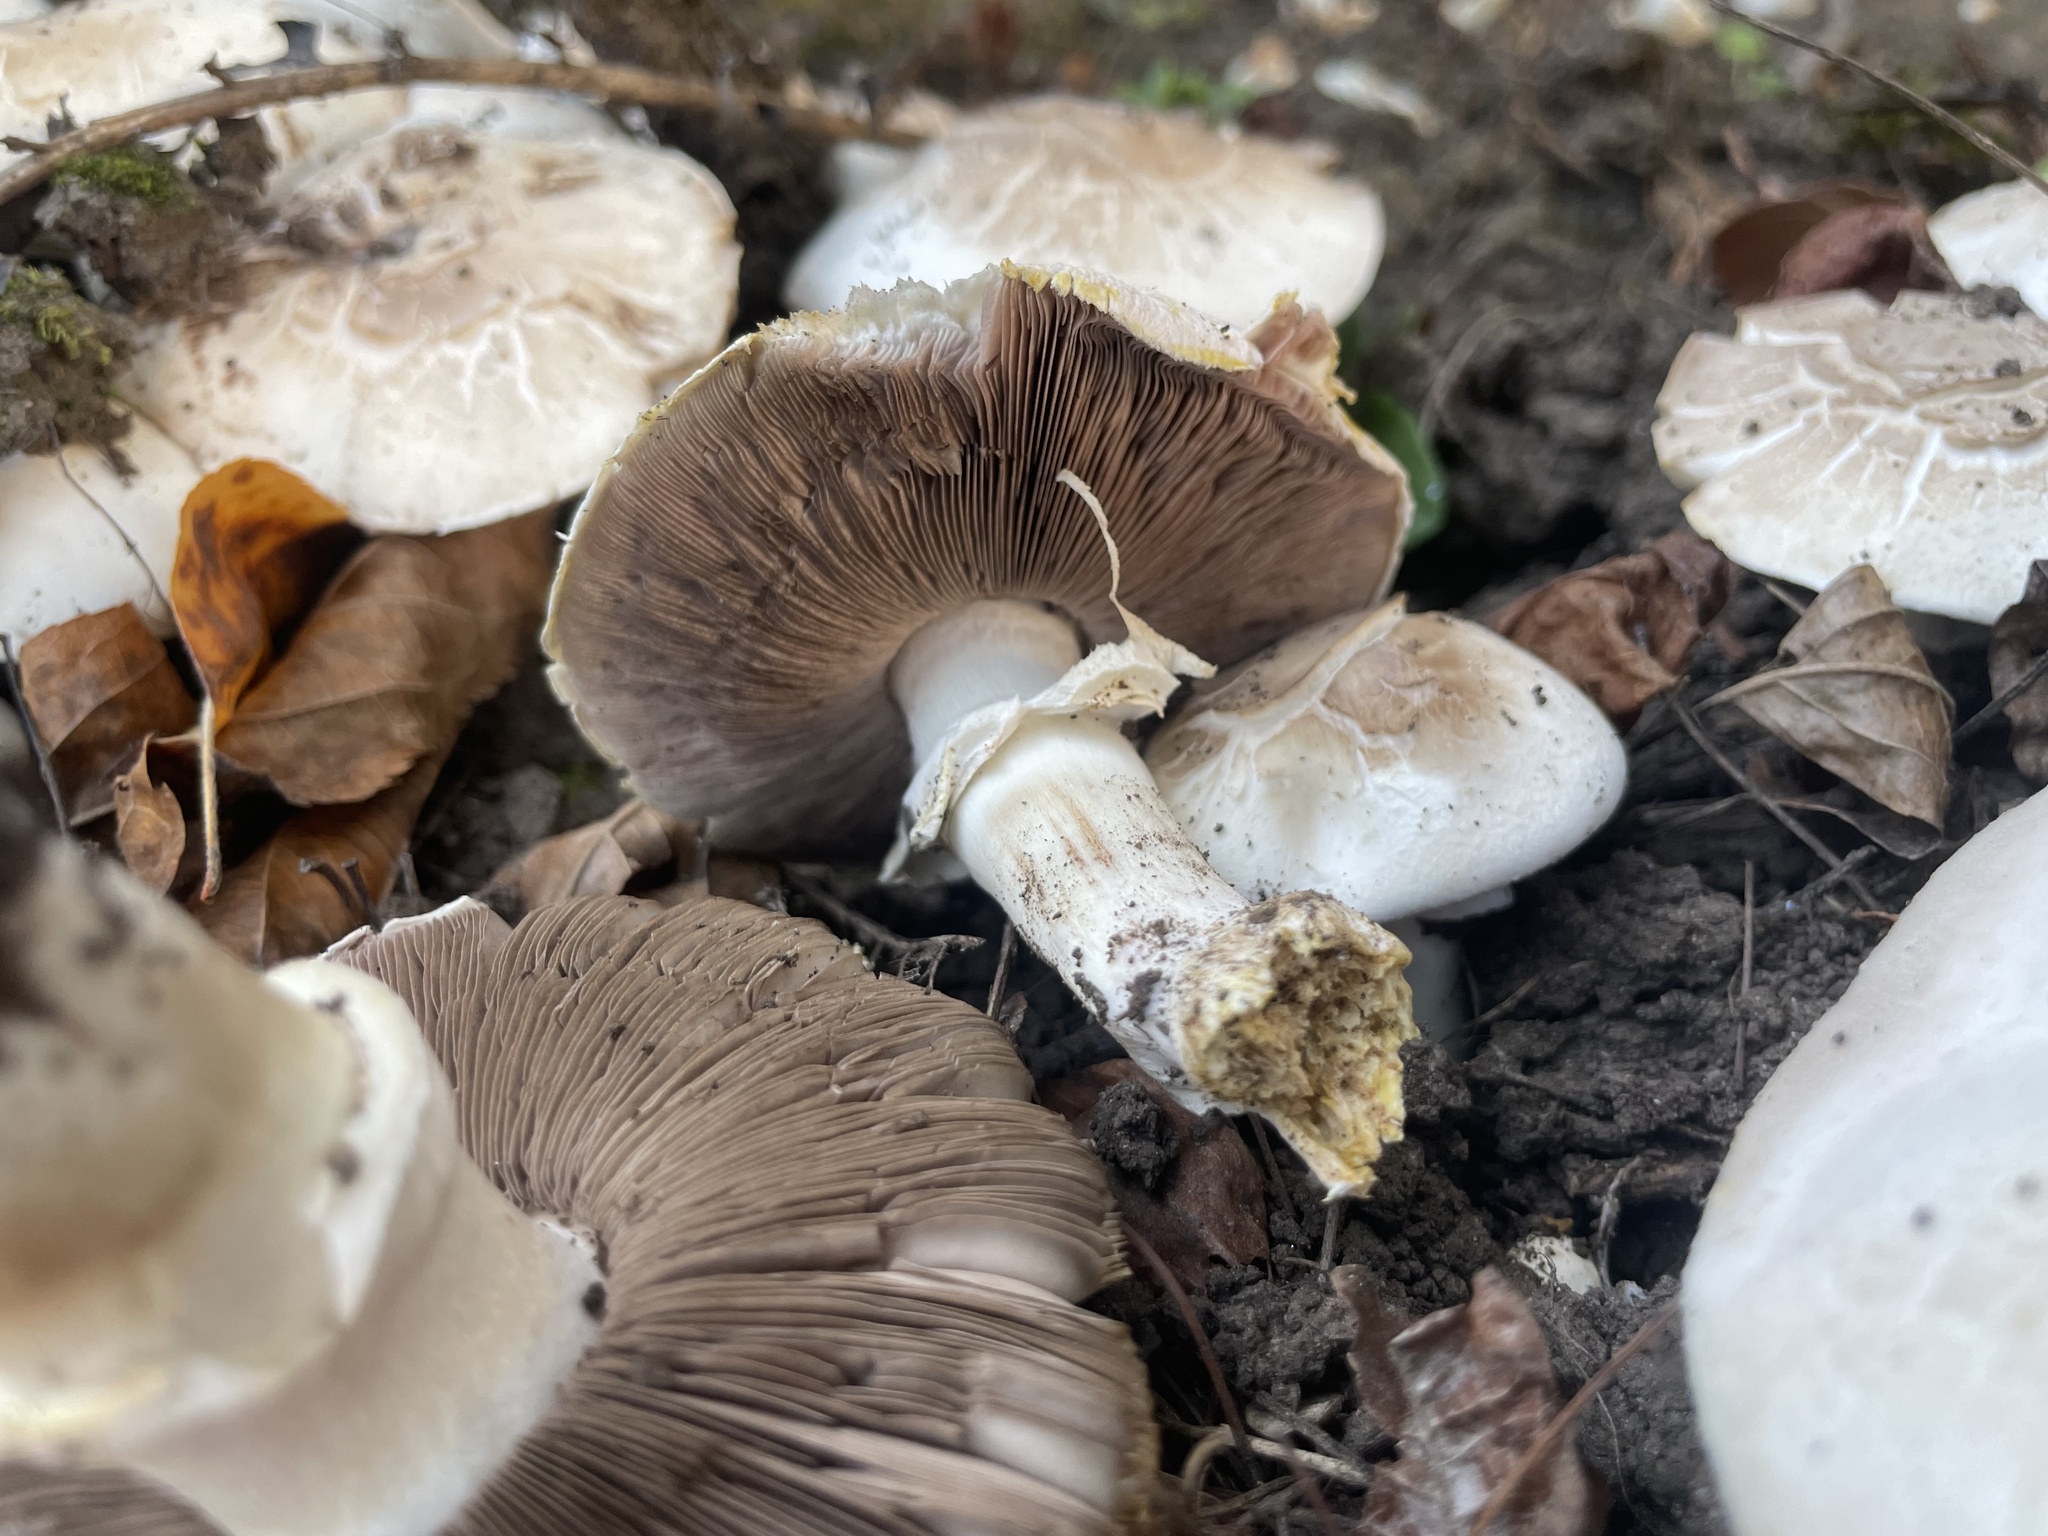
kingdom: Fungi
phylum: Basidiomycota
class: Agaricomycetes
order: Agaricales
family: Agaricaceae
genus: Agaricus
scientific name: Agaricus xanthodermus
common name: Yellow stainer
